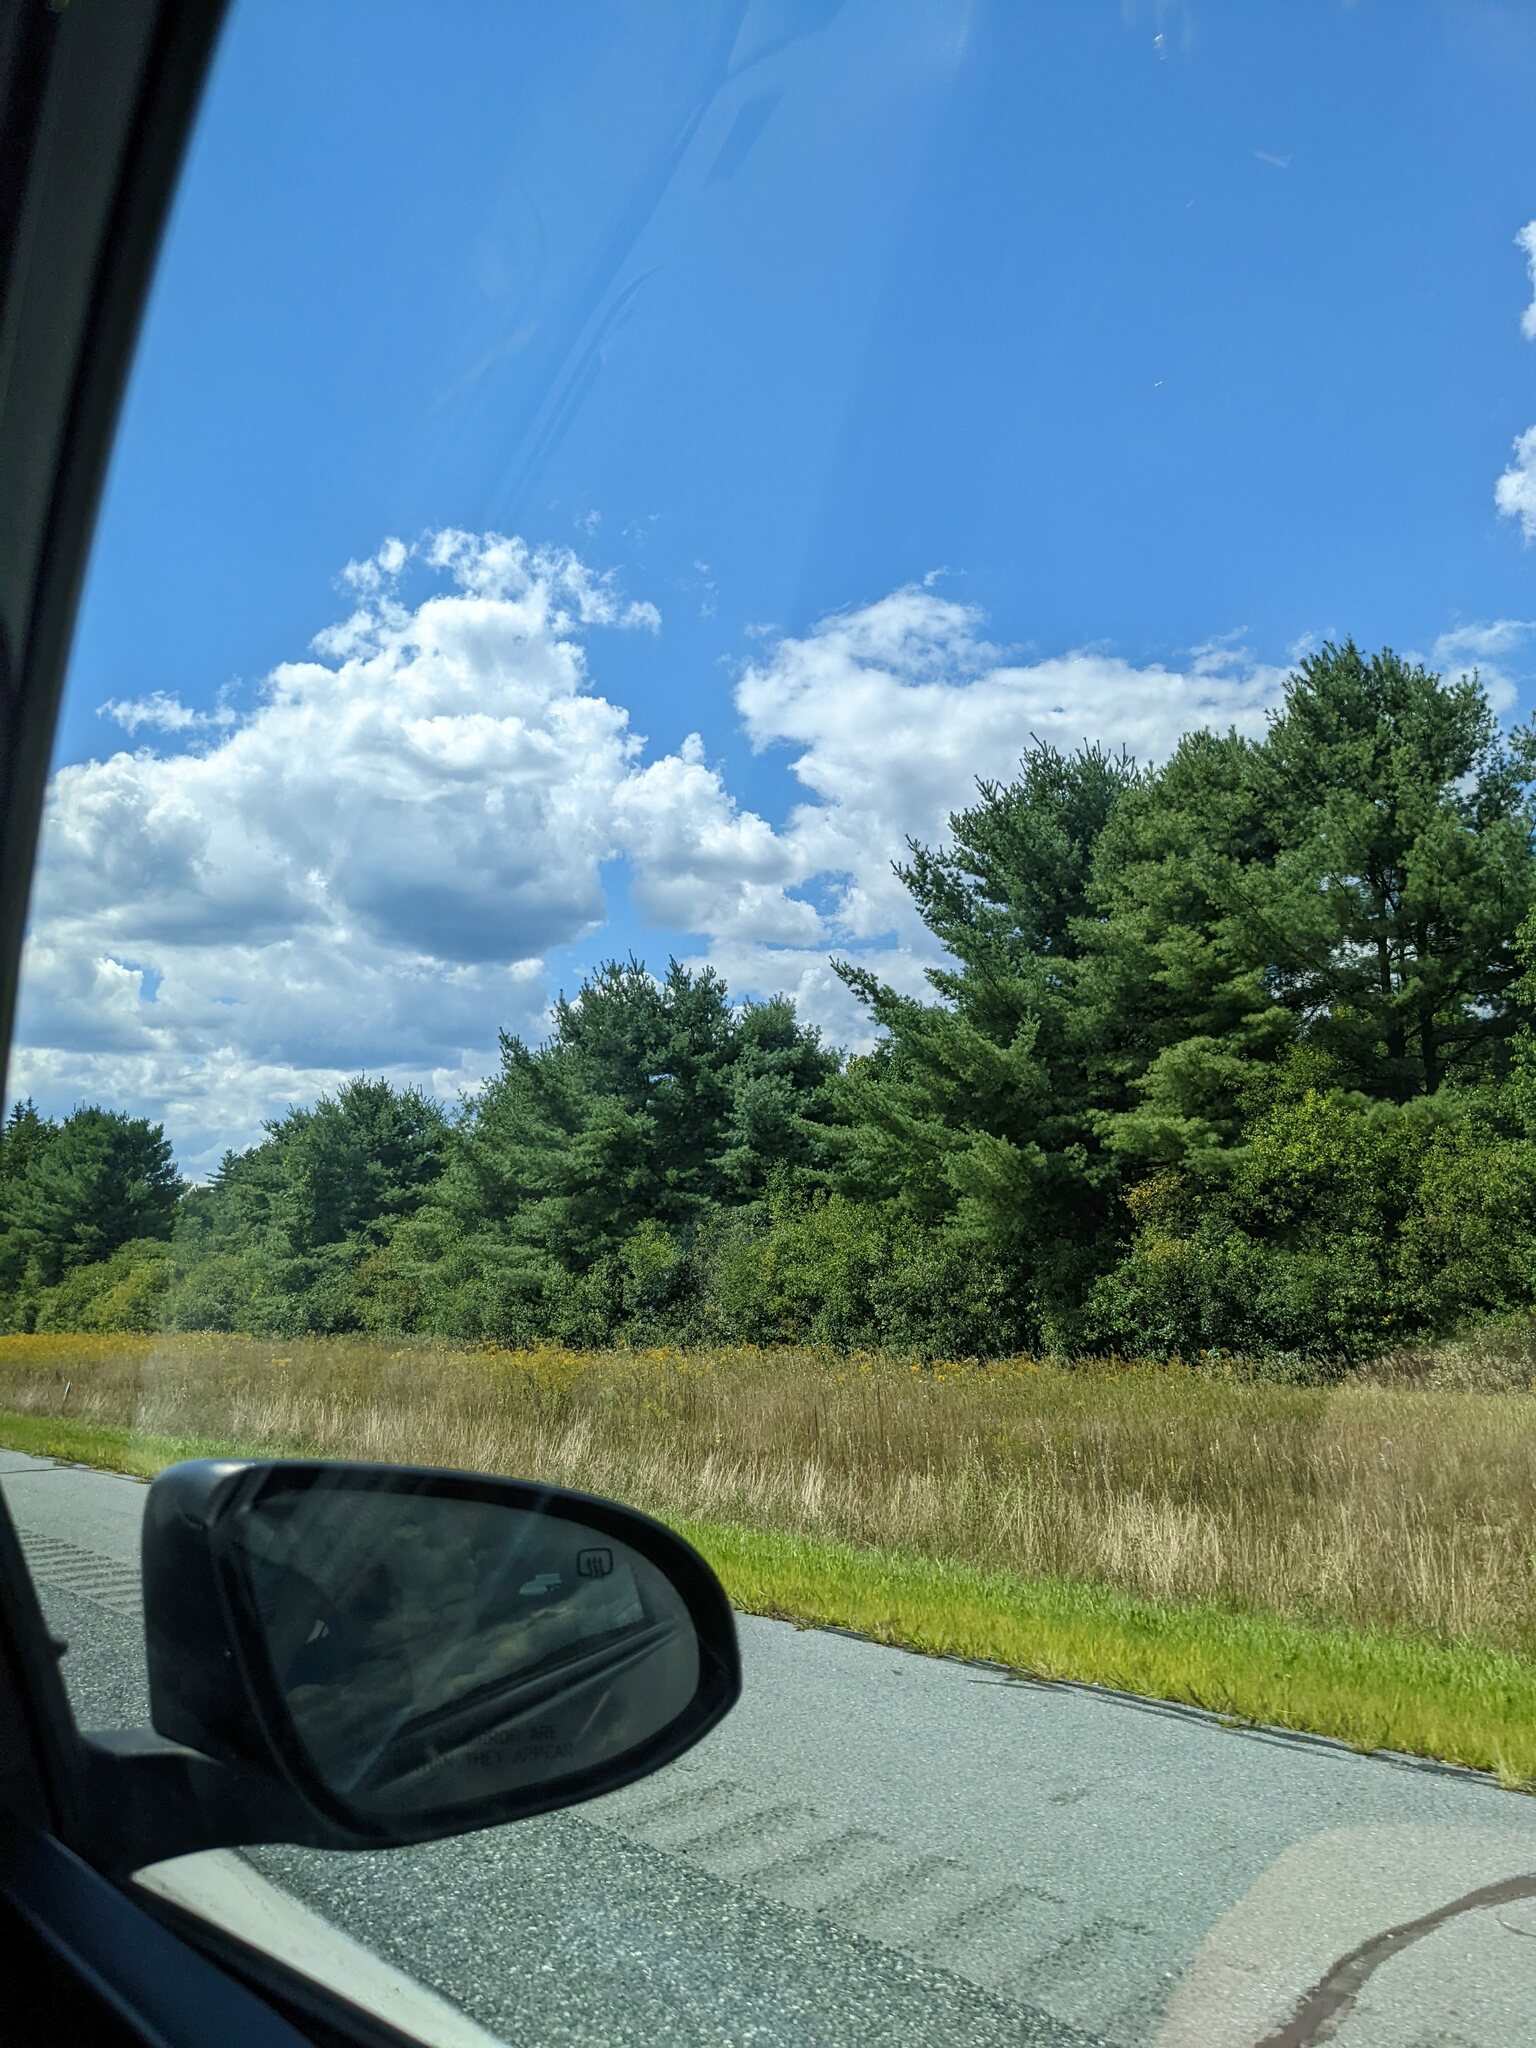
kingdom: Plantae
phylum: Tracheophyta
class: Pinopsida
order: Pinales
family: Pinaceae
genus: Pinus
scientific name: Pinus strobus
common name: Weymouth pine
